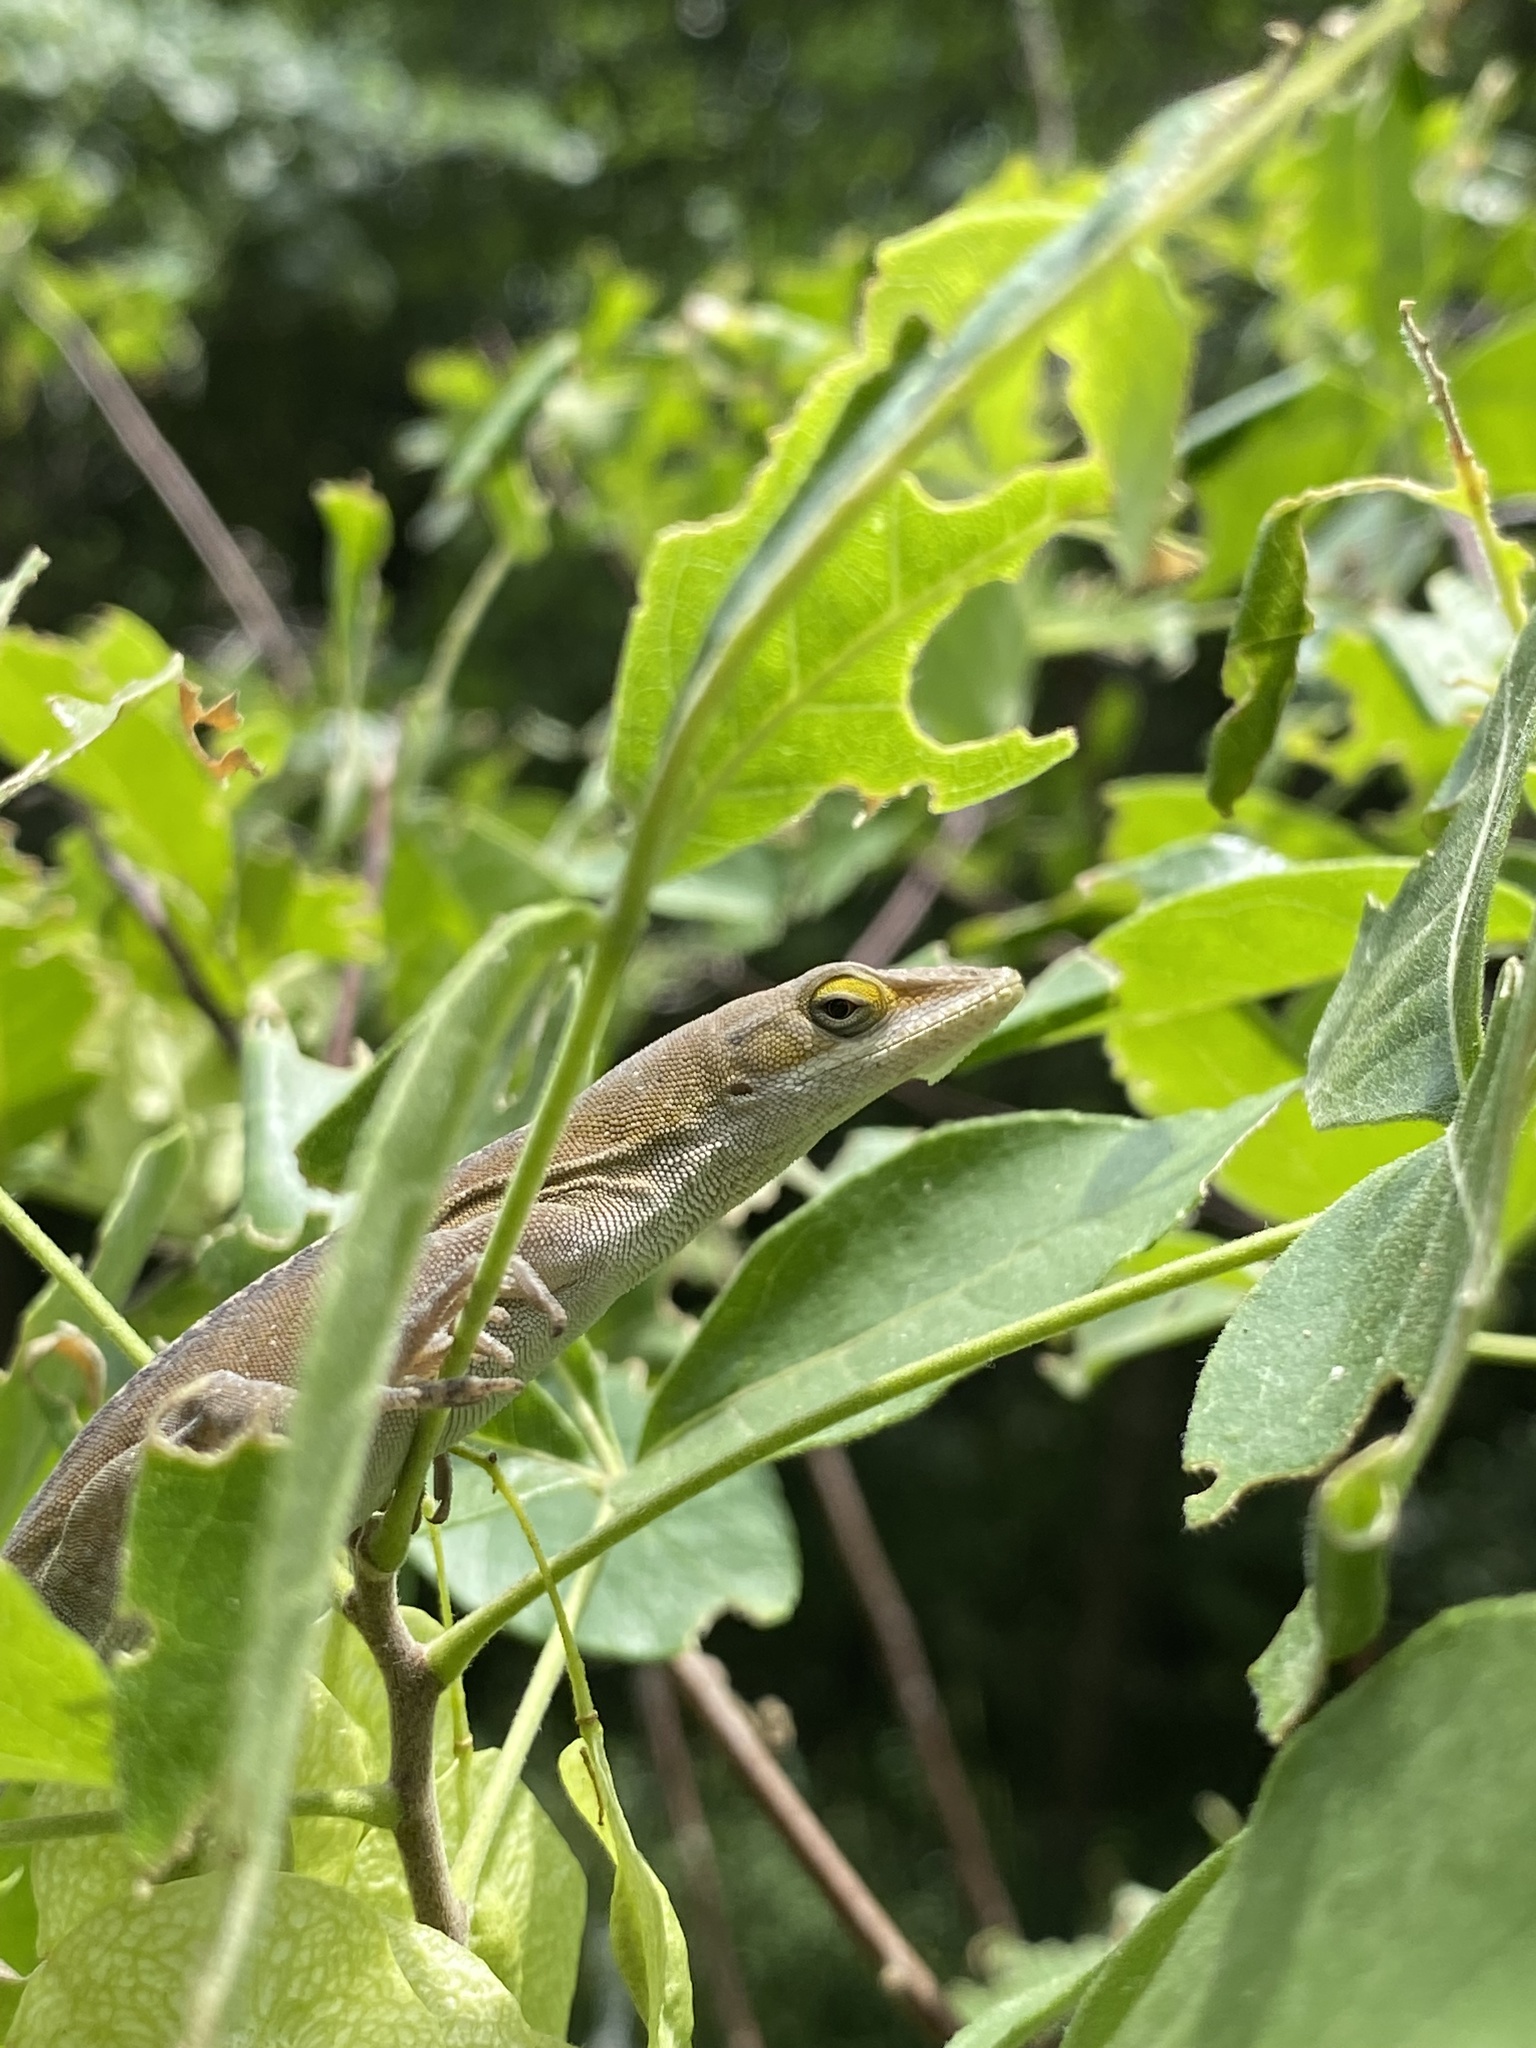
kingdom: Animalia
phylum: Chordata
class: Squamata
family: Dactyloidae
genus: Anolis
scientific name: Anolis carolinensis
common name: Green anole
